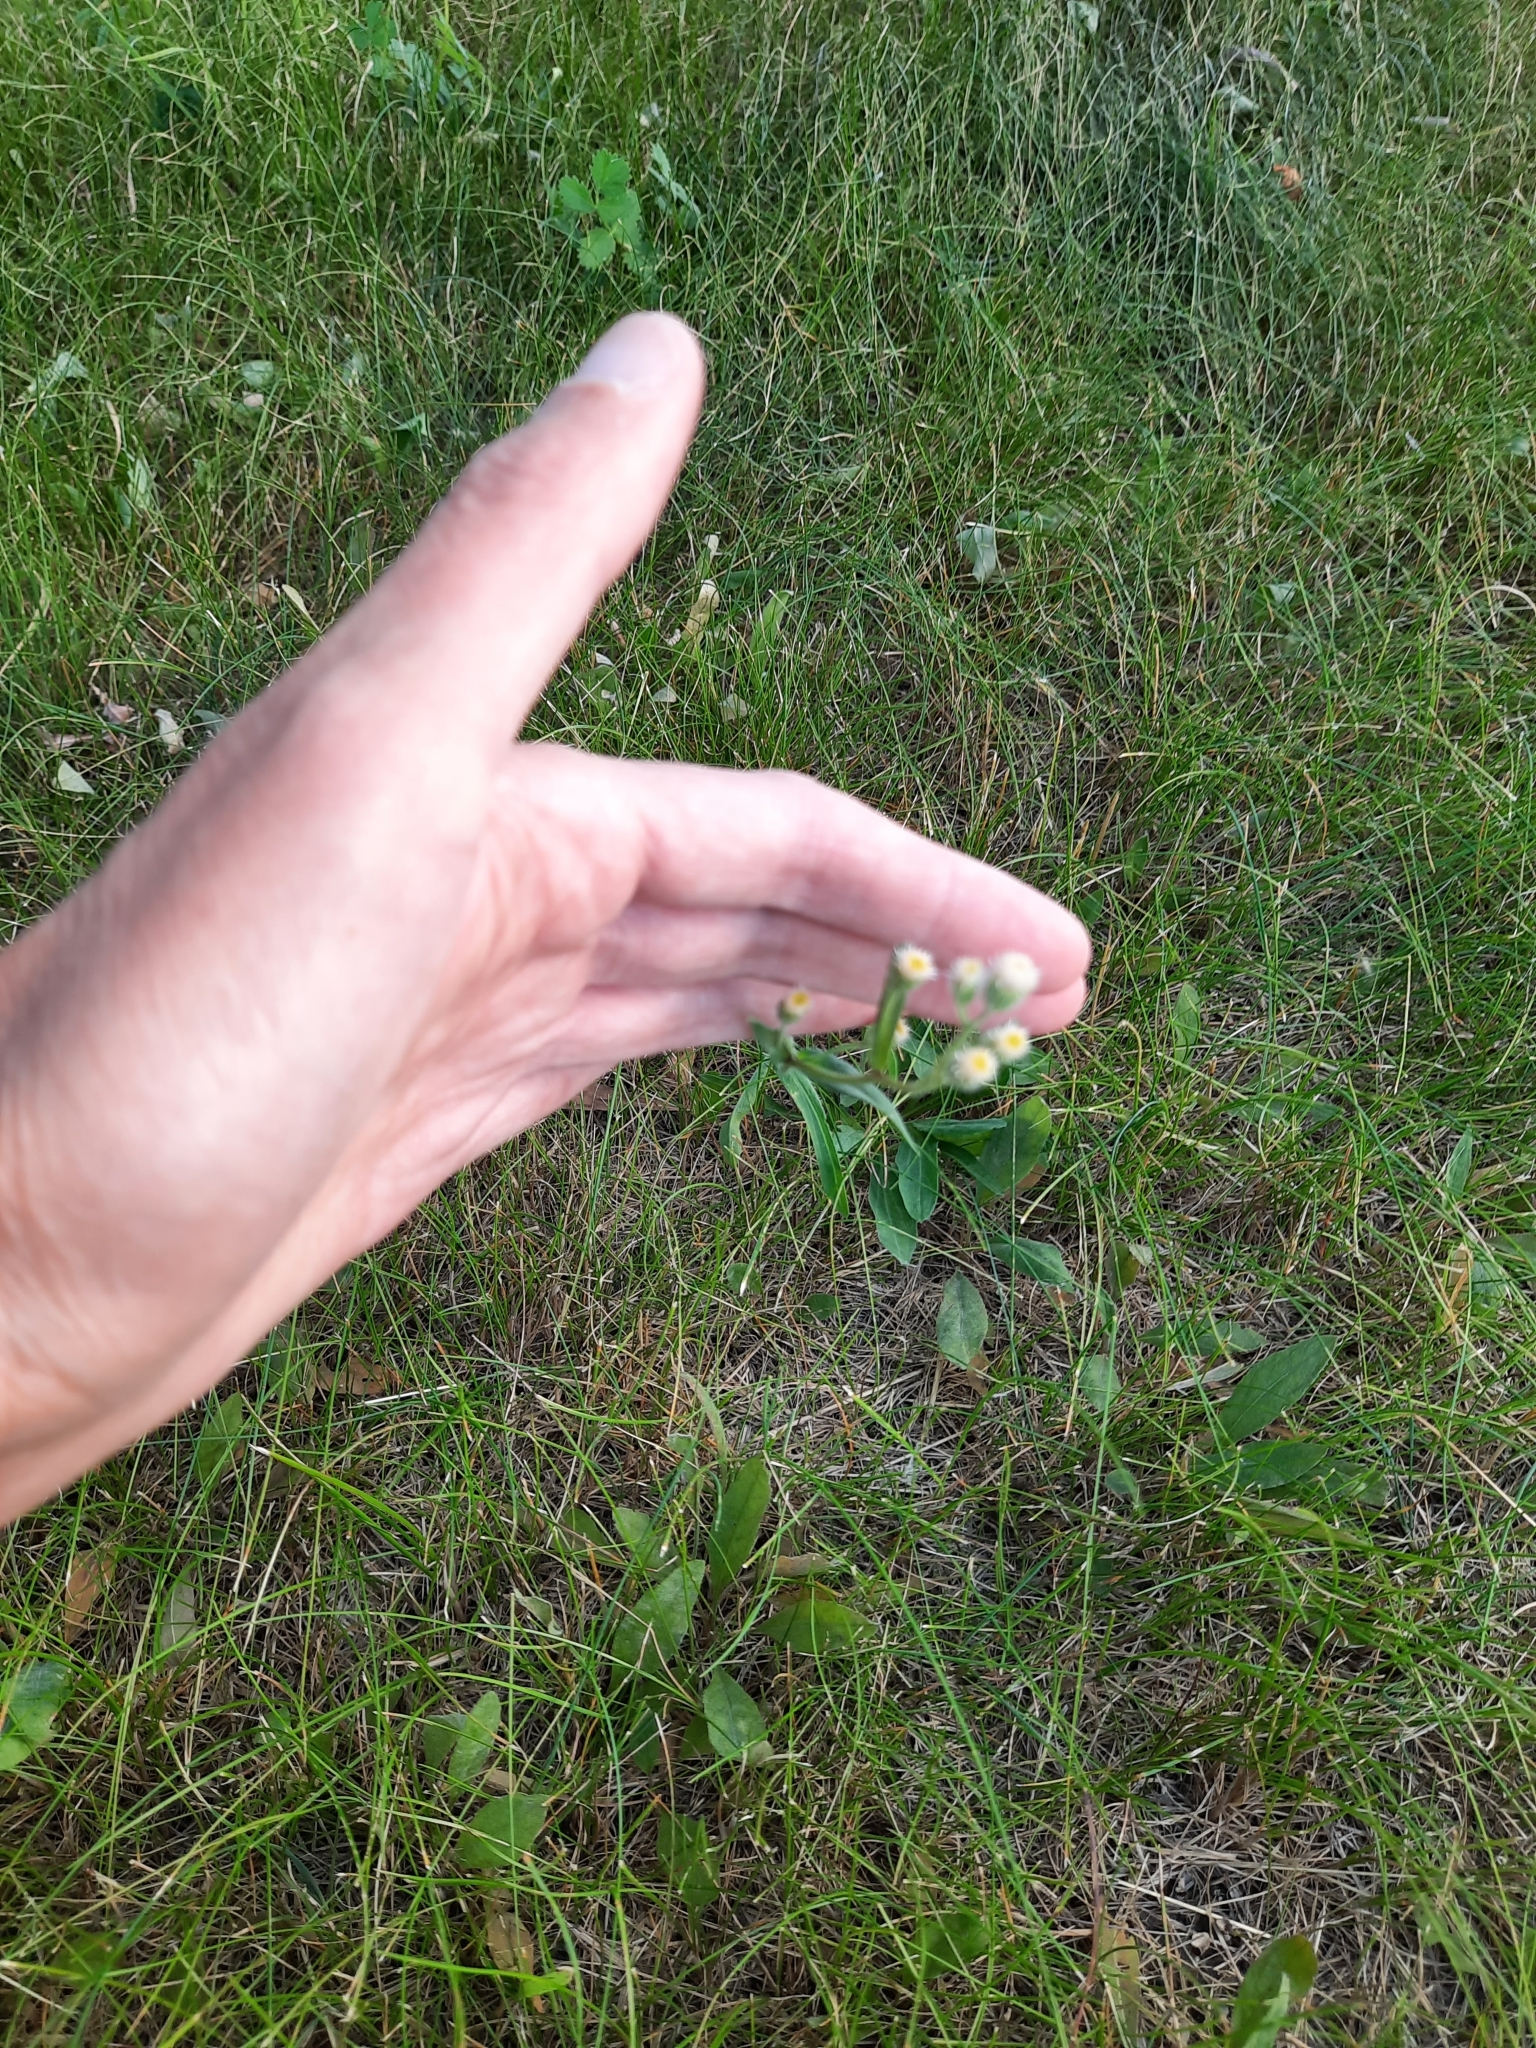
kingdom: Plantae
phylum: Tracheophyta
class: Magnoliopsida
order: Asterales
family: Asteraceae
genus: Erigeron
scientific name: Erigeron acris
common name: Blue fleabane
